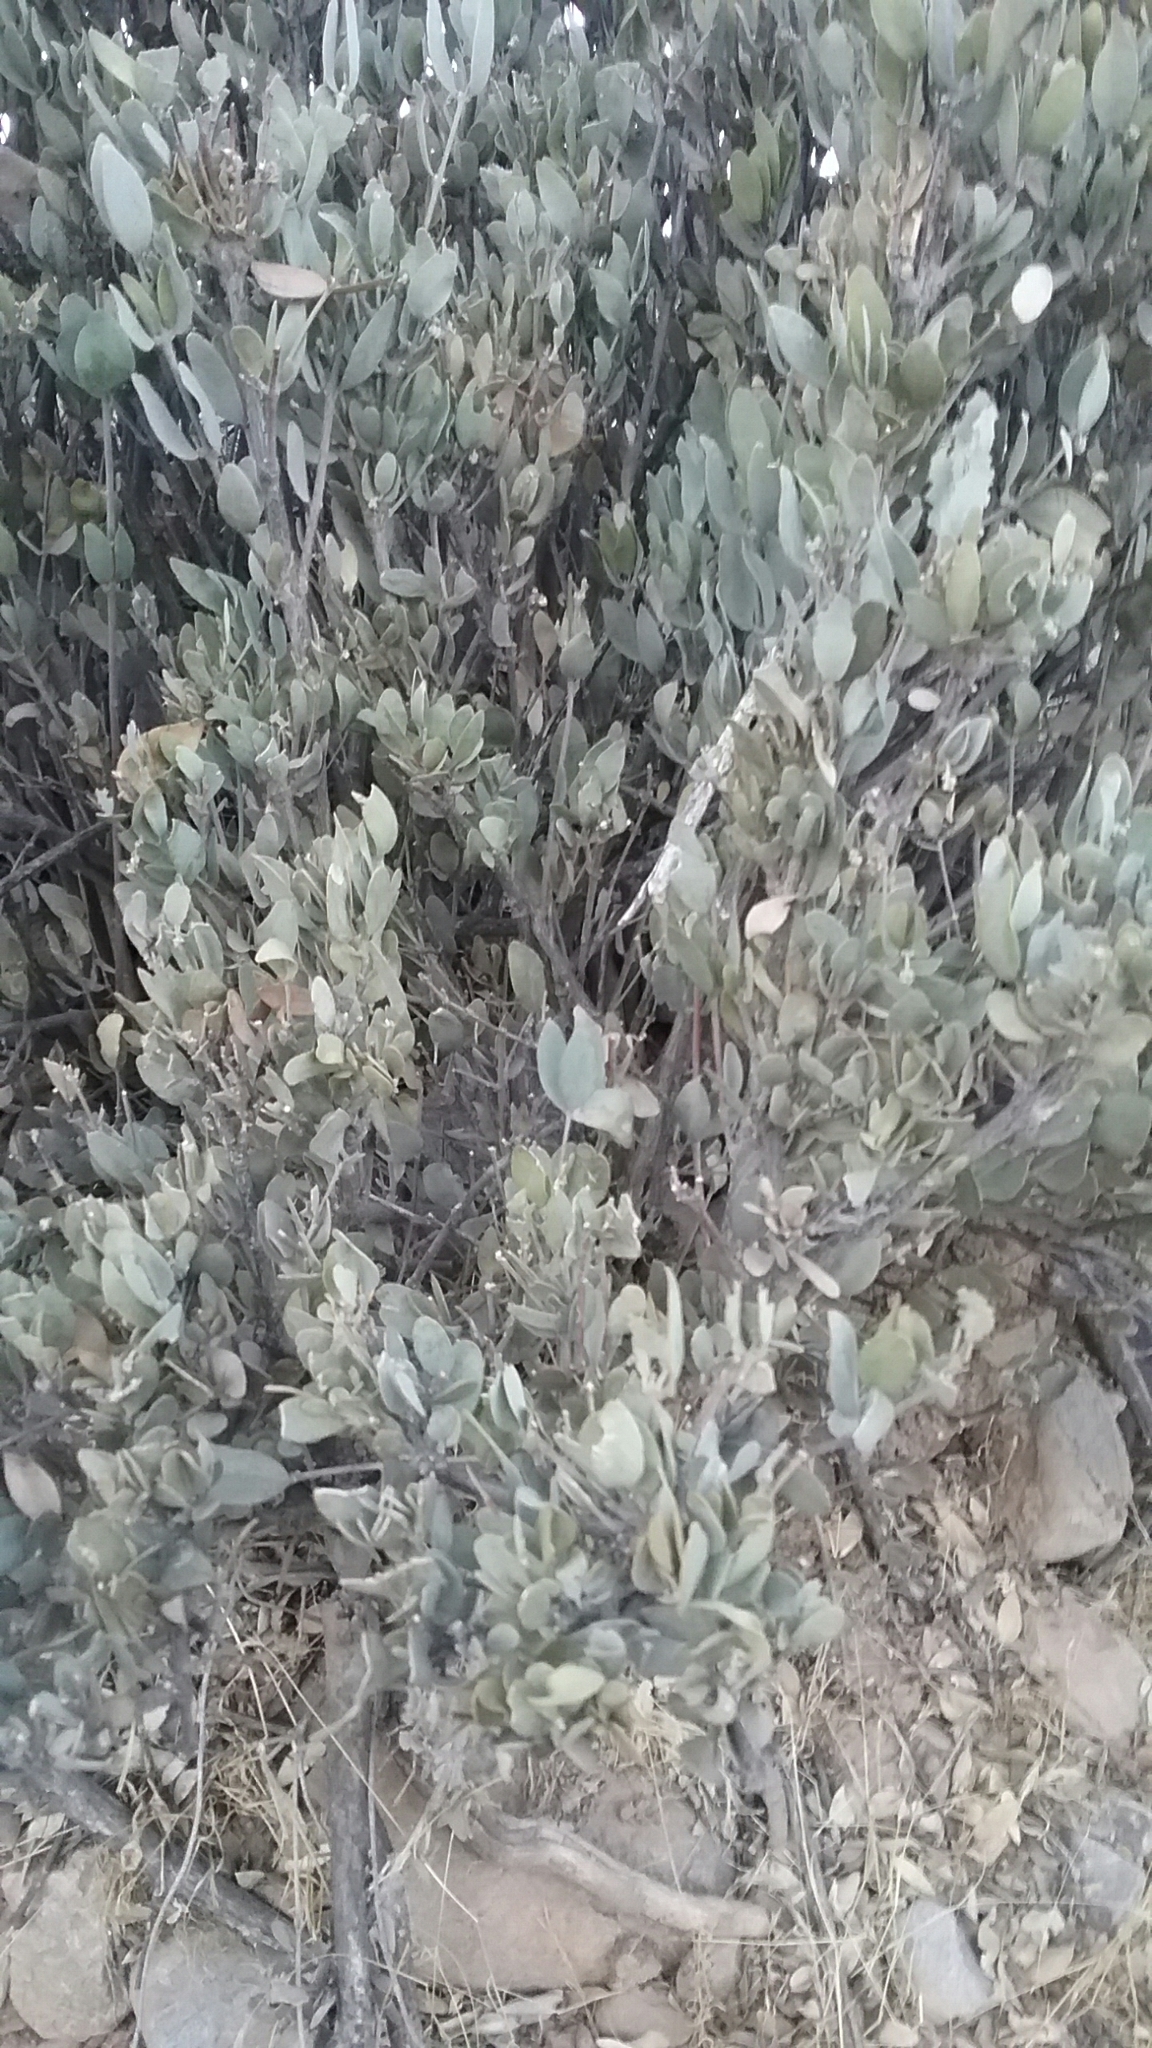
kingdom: Plantae
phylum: Tracheophyta
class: Magnoliopsida
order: Caryophyllales
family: Simmondsiaceae
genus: Simmondsia
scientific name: Simmondsia chinensis
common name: Jojoba
